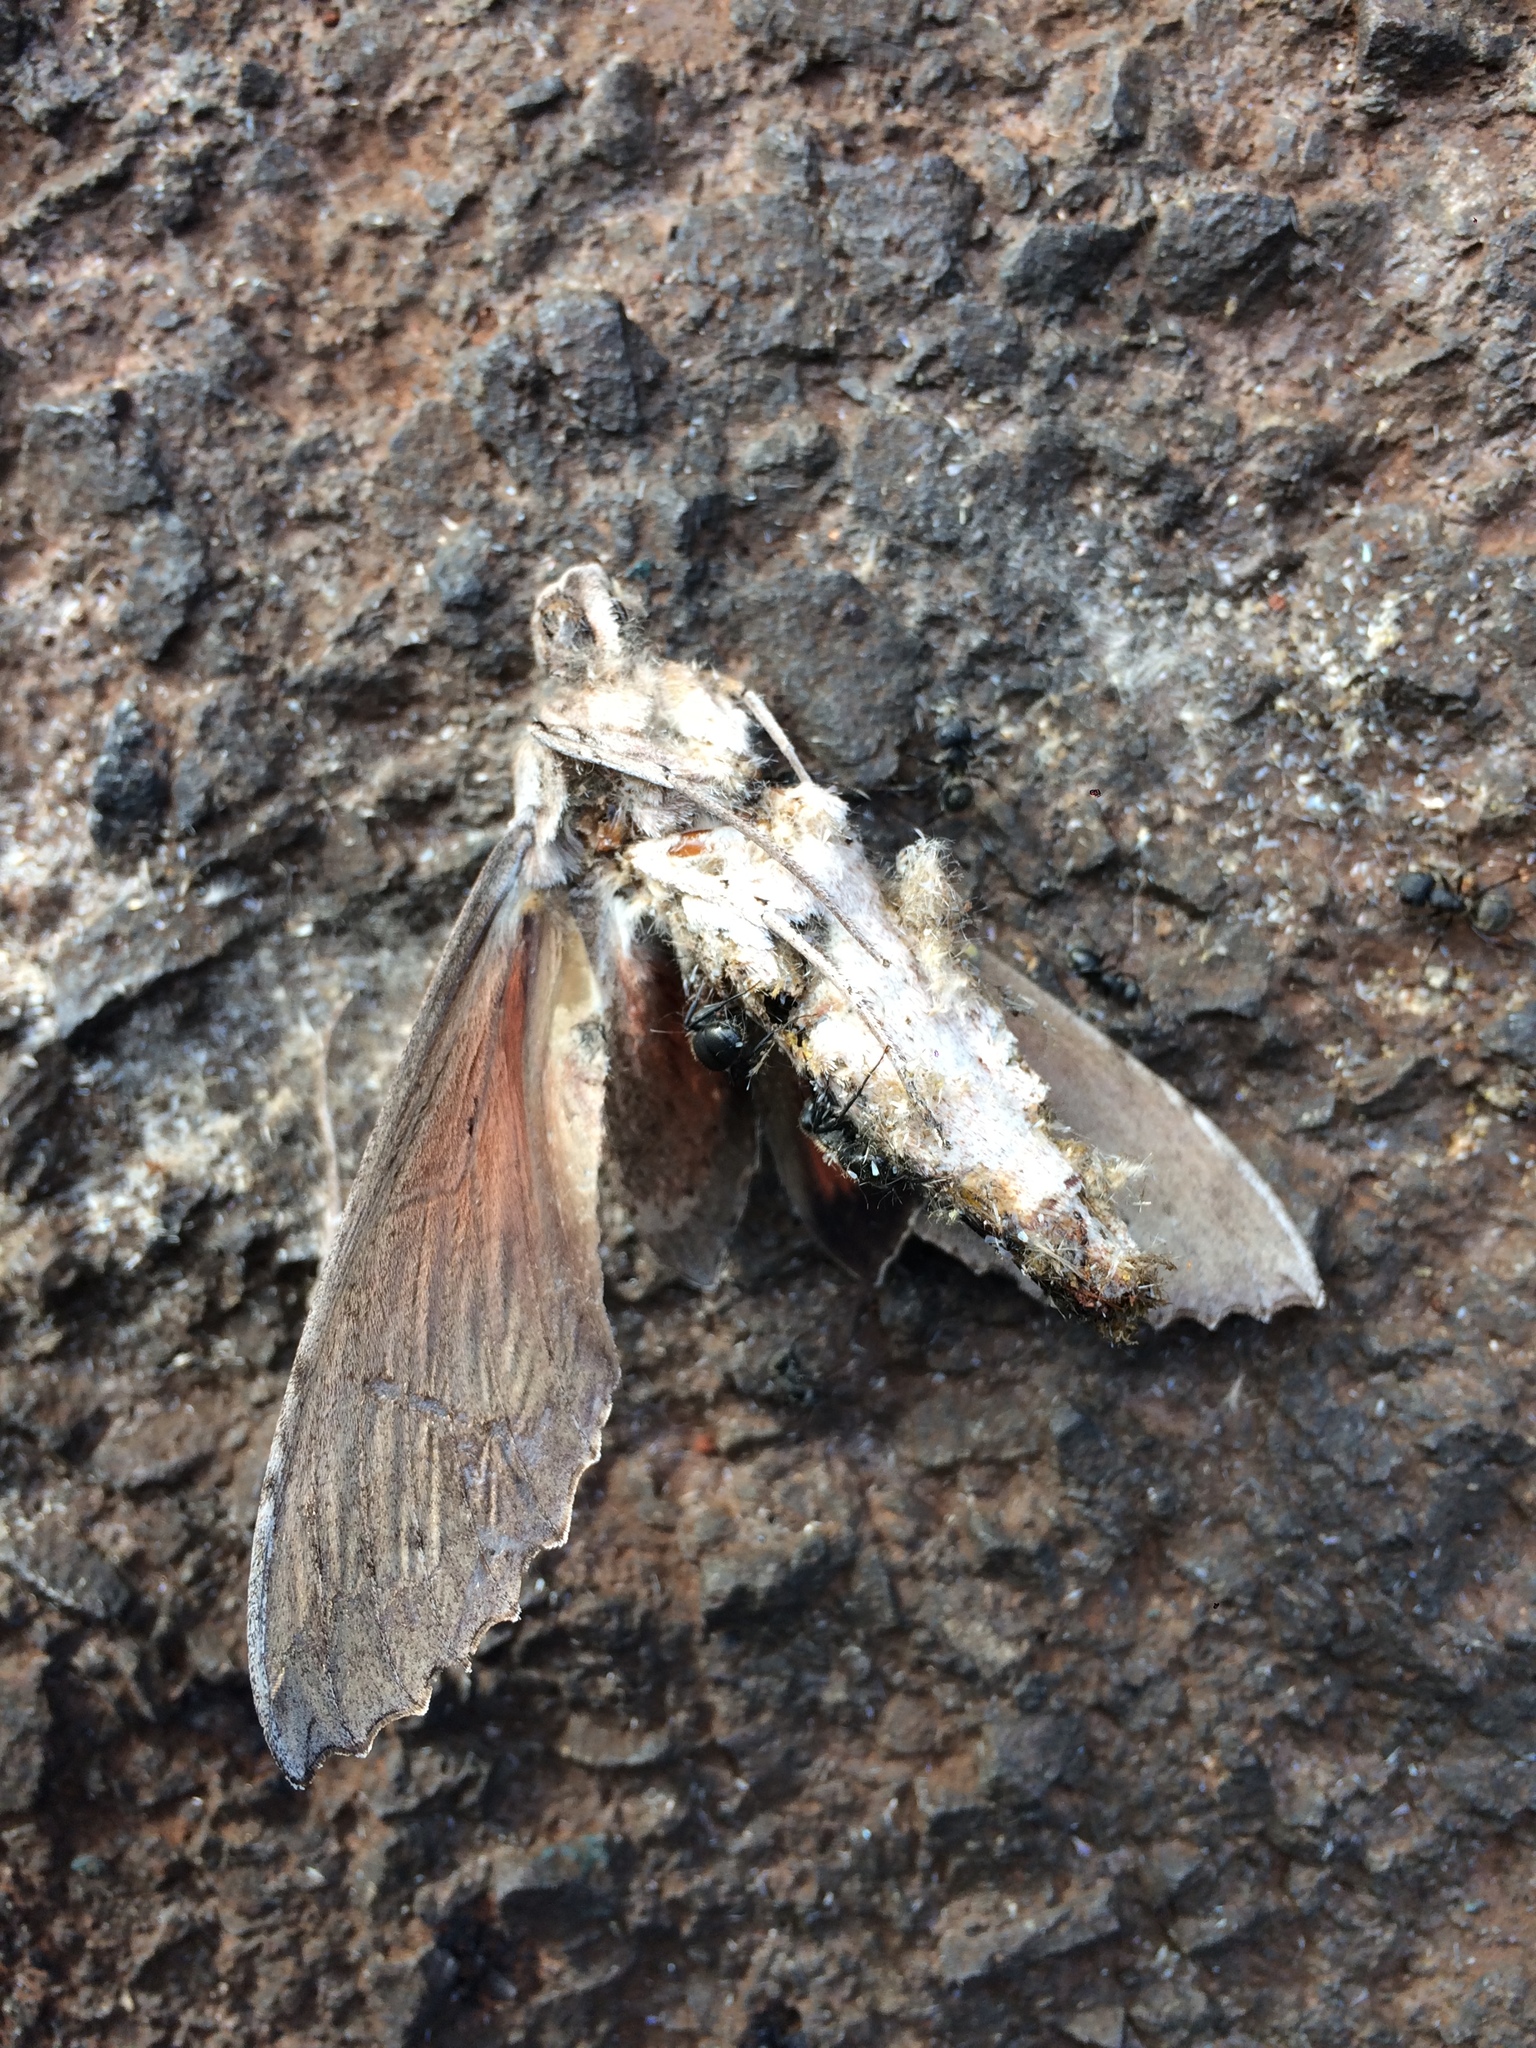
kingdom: Animalia
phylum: Arthropoda
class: Insecta
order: Lepidoptera
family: Sphingidae
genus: Erinnyis
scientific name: Erinnyis ello
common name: Ello sphinx
